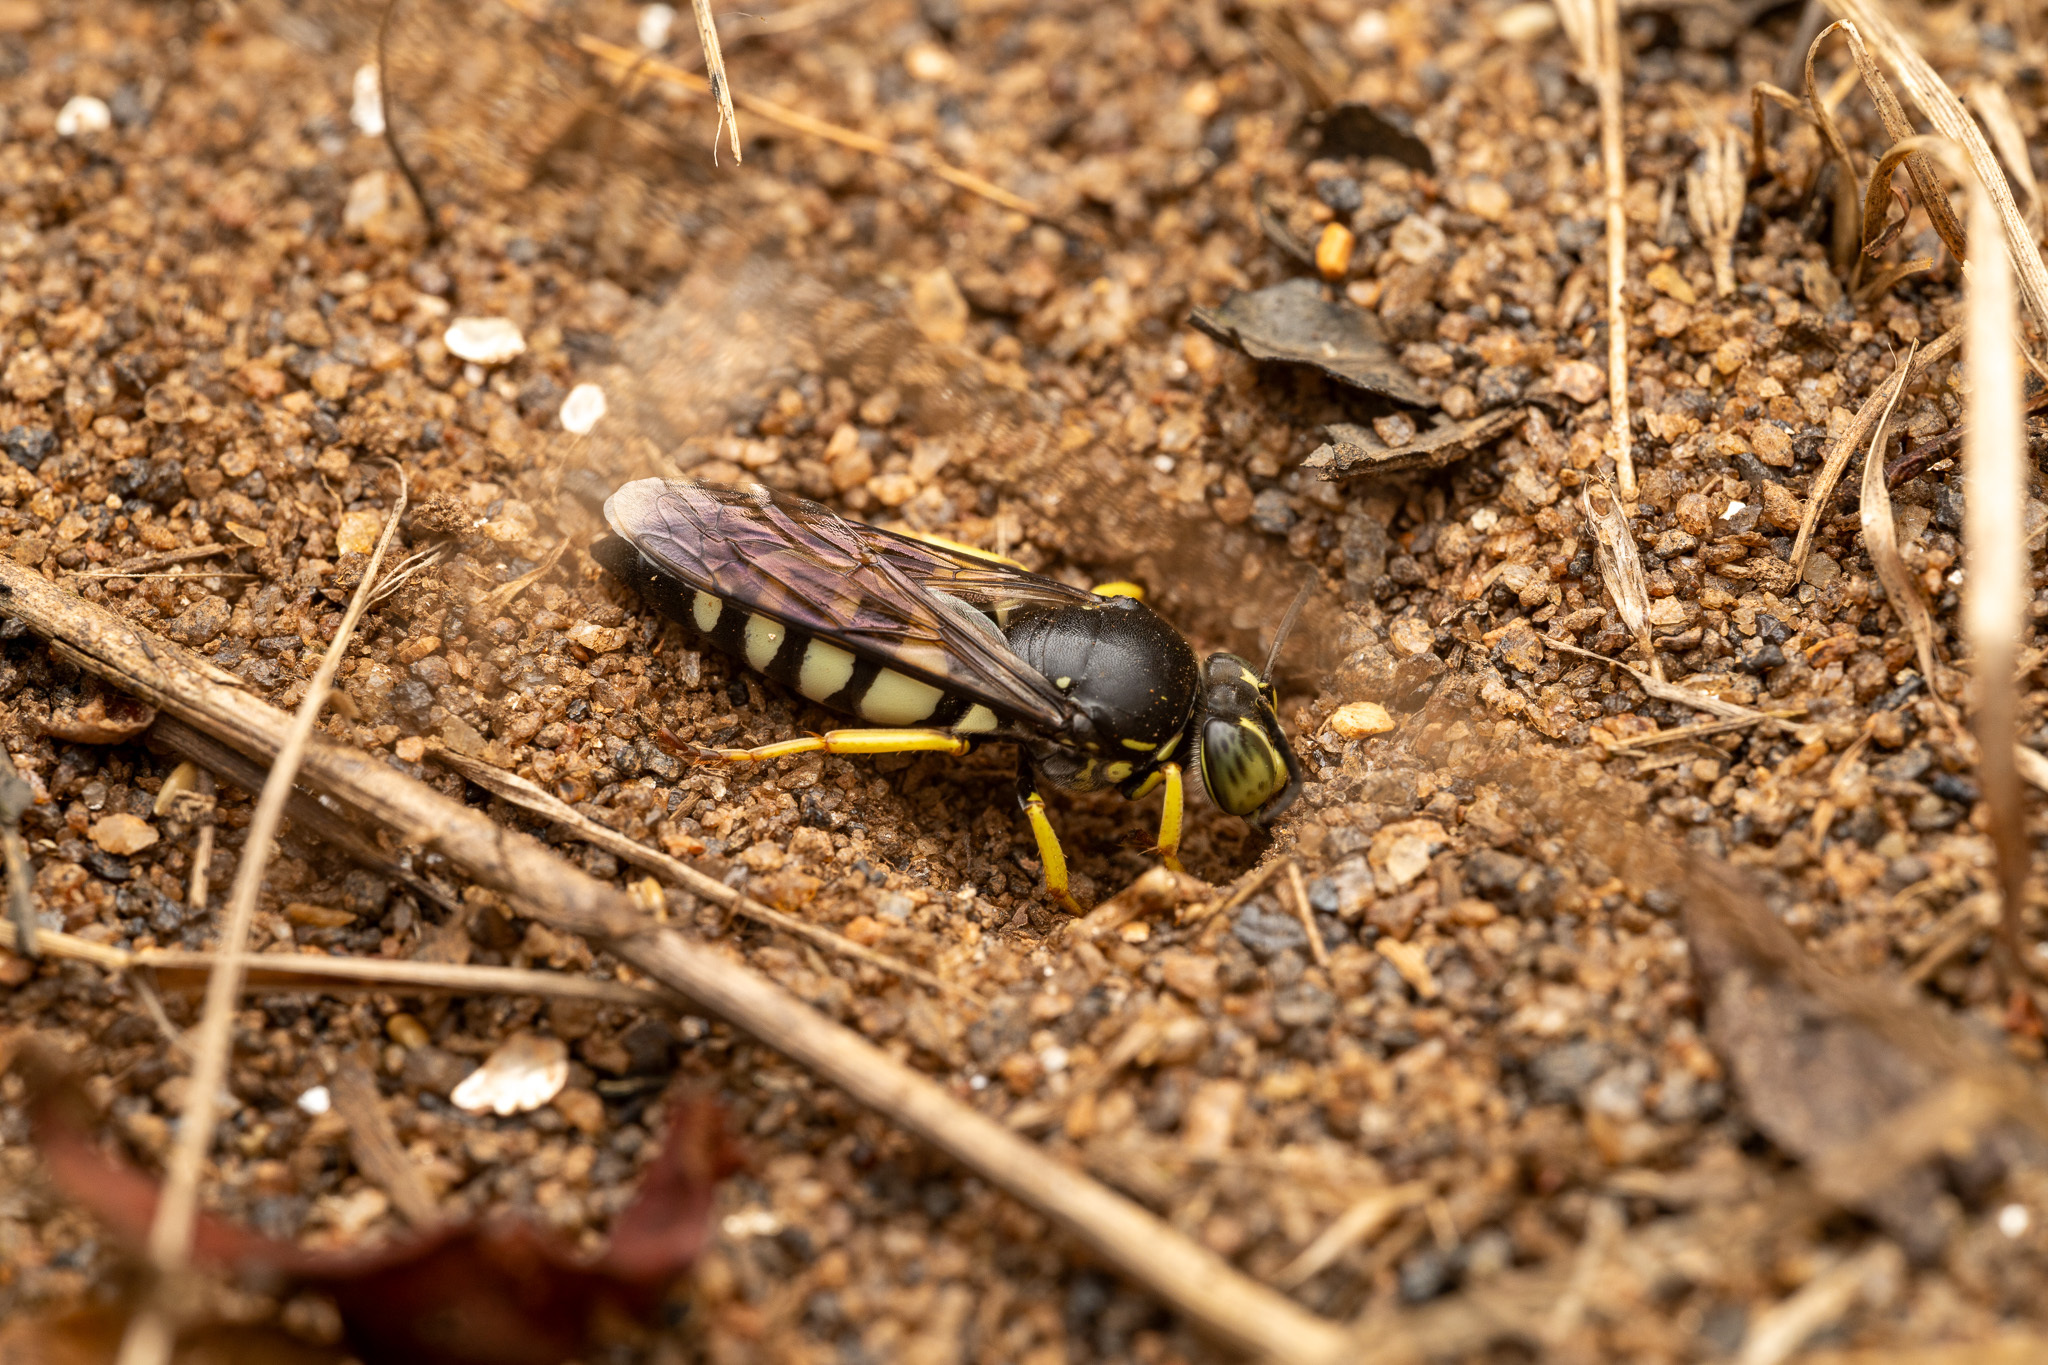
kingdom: Animalia
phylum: Arthropoda
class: Insecta
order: Hymenoptera
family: Crabronidae
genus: Bicyrtes
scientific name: Bicyrtes quadrifasciatus
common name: Four-banded stink bug hunter wasp
